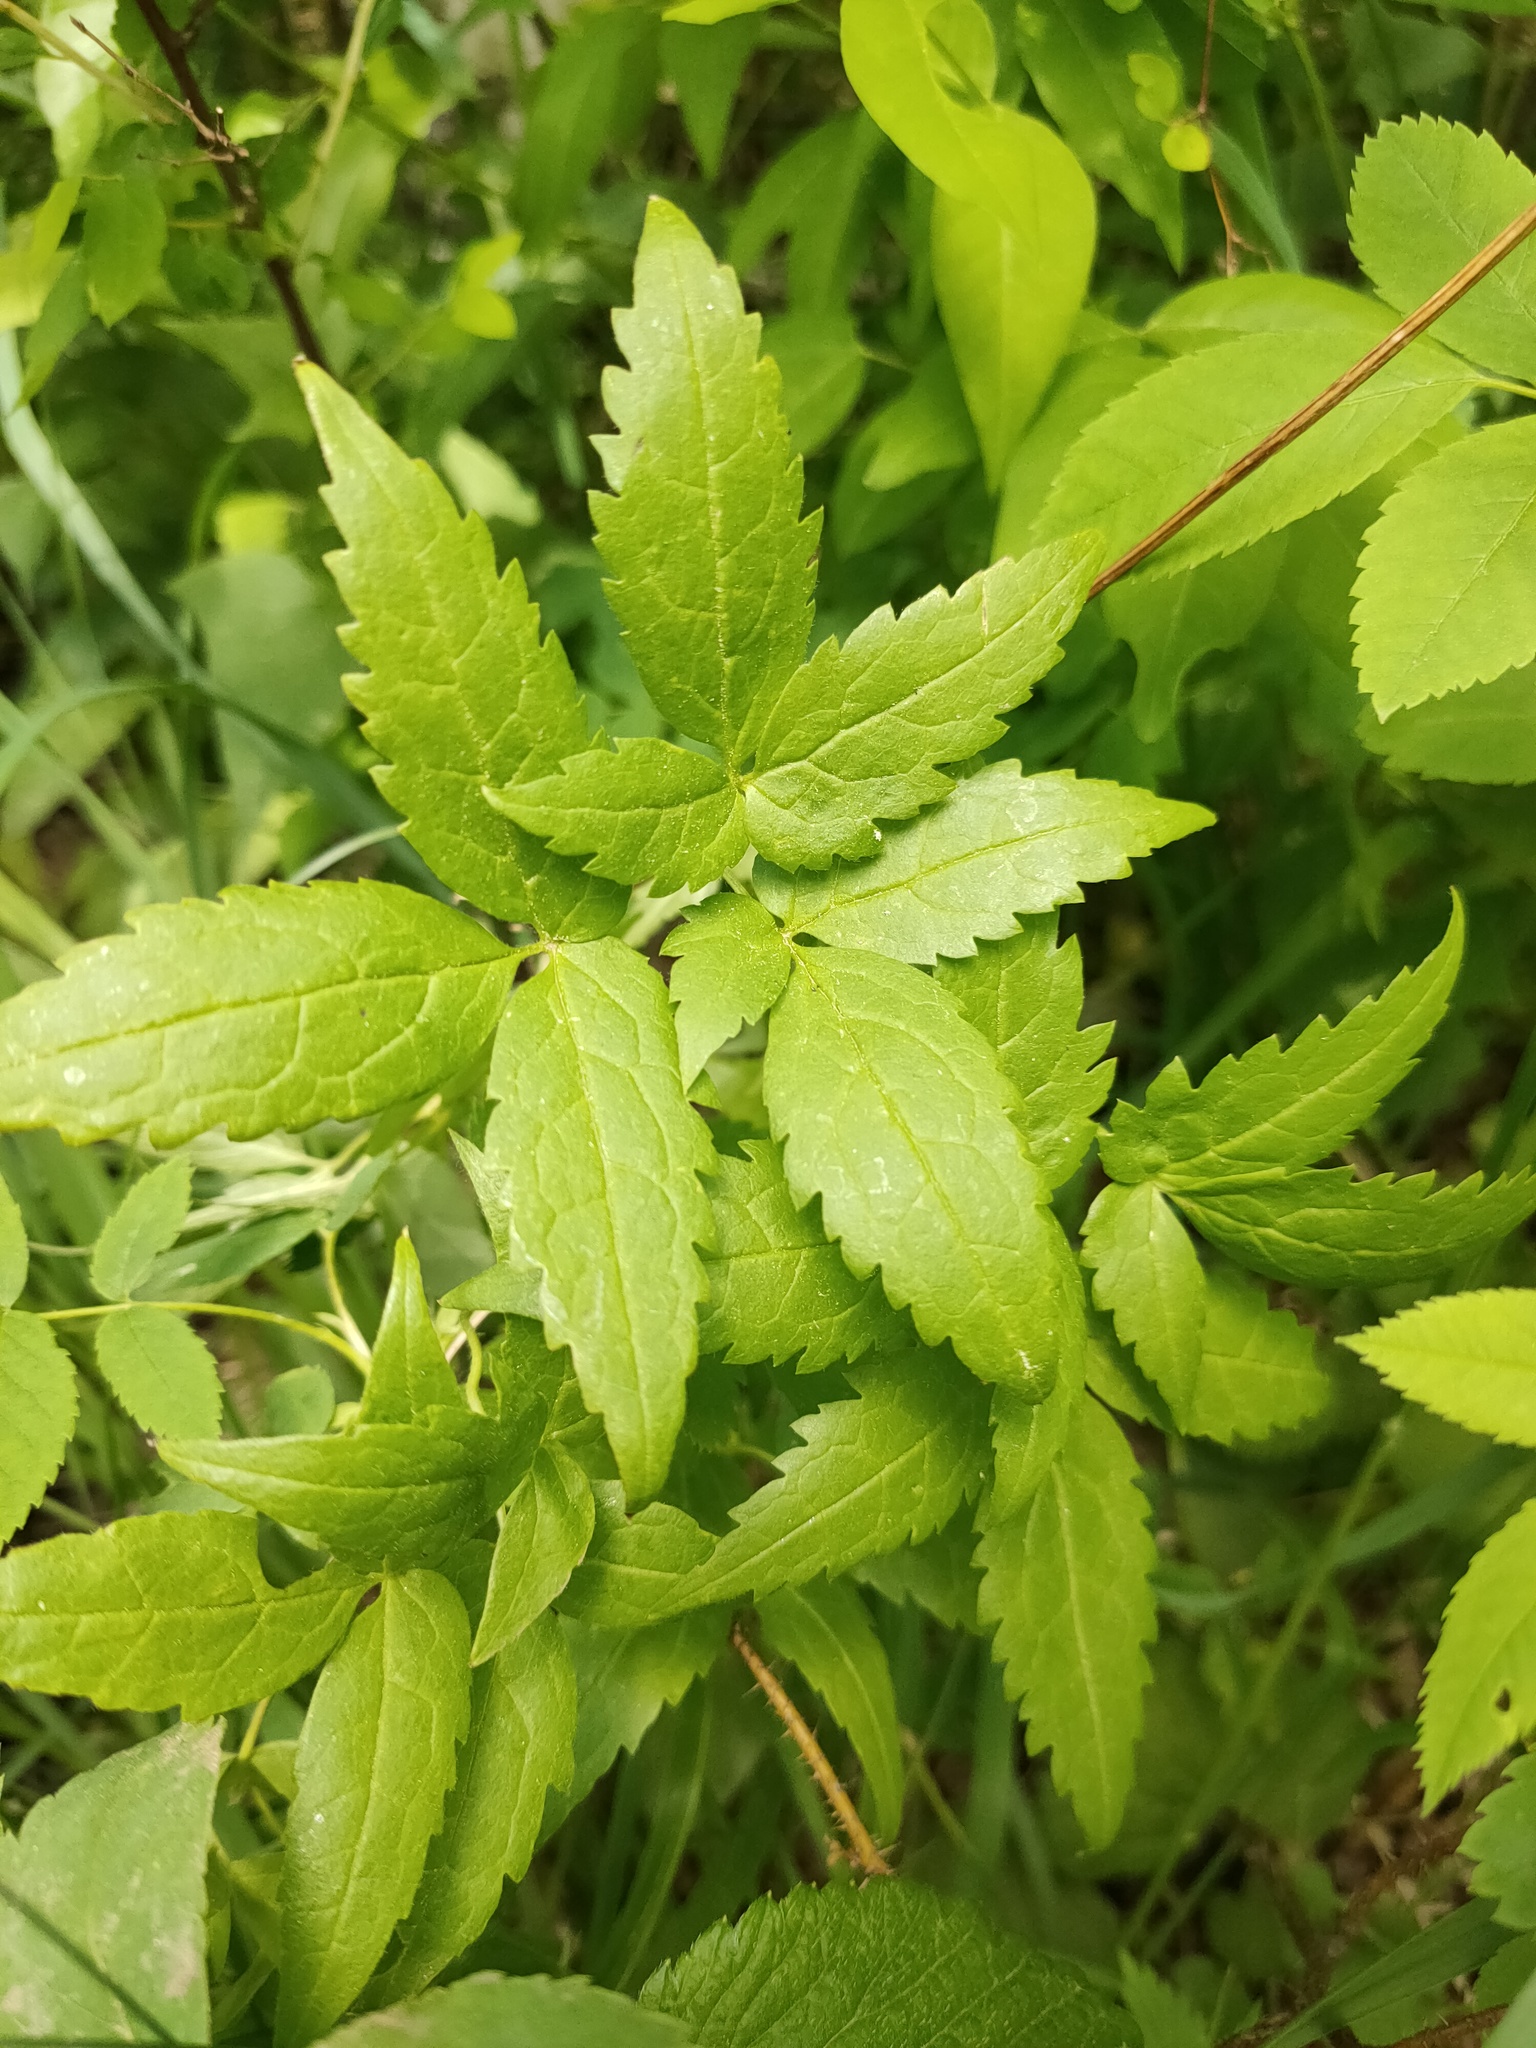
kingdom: Plantae
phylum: Tracheophyta
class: Magnoliopsida
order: Ranunculales
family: Ranunculaceae
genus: Clematis
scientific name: Clematis sibirica
